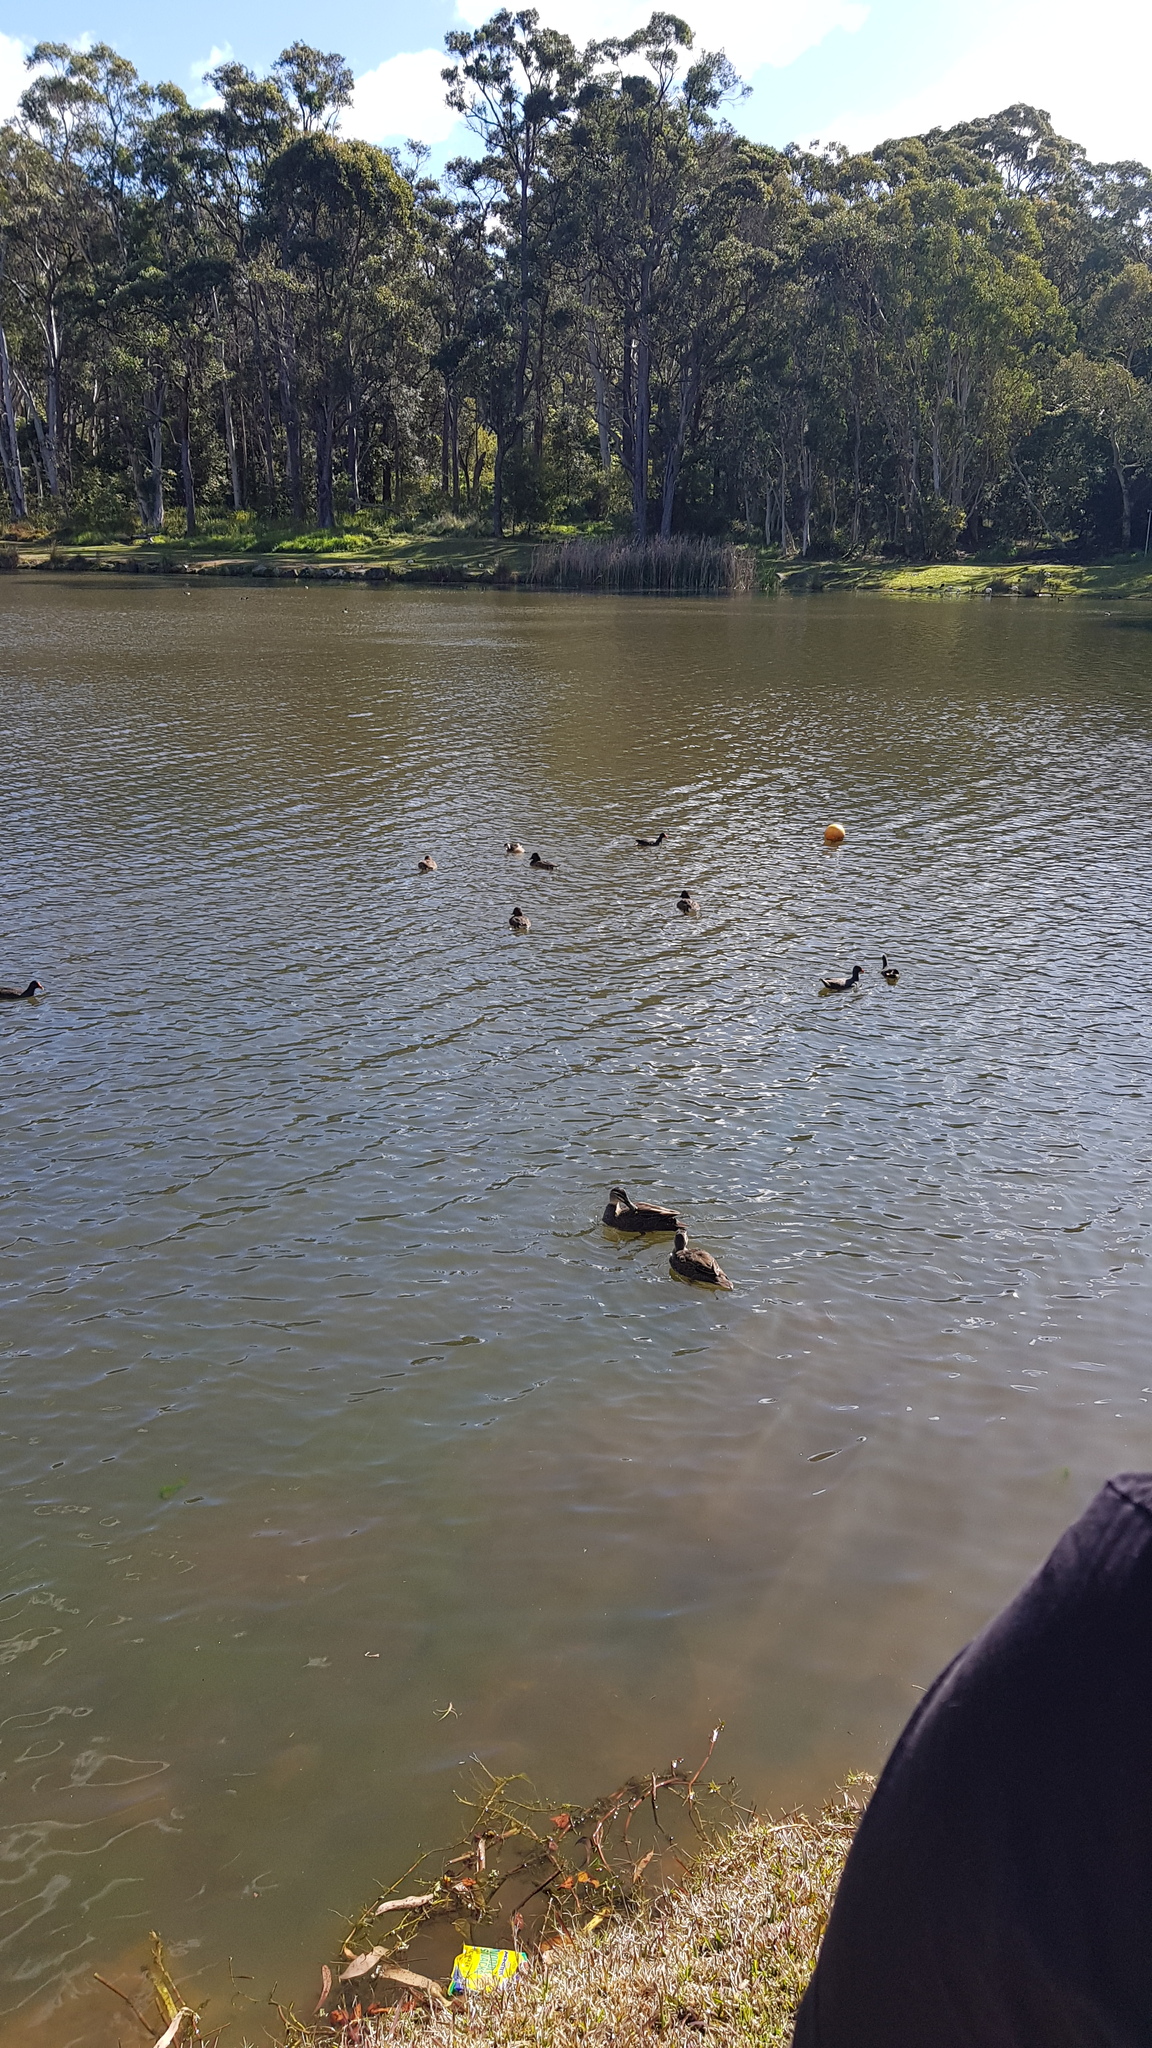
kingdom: Animalia
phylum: Chordata
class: Aves
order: Podicipediformes
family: Podicipedidae
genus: Tachybaptus
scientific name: Tachybaptus novaehollandiae
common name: Australasian grebe
